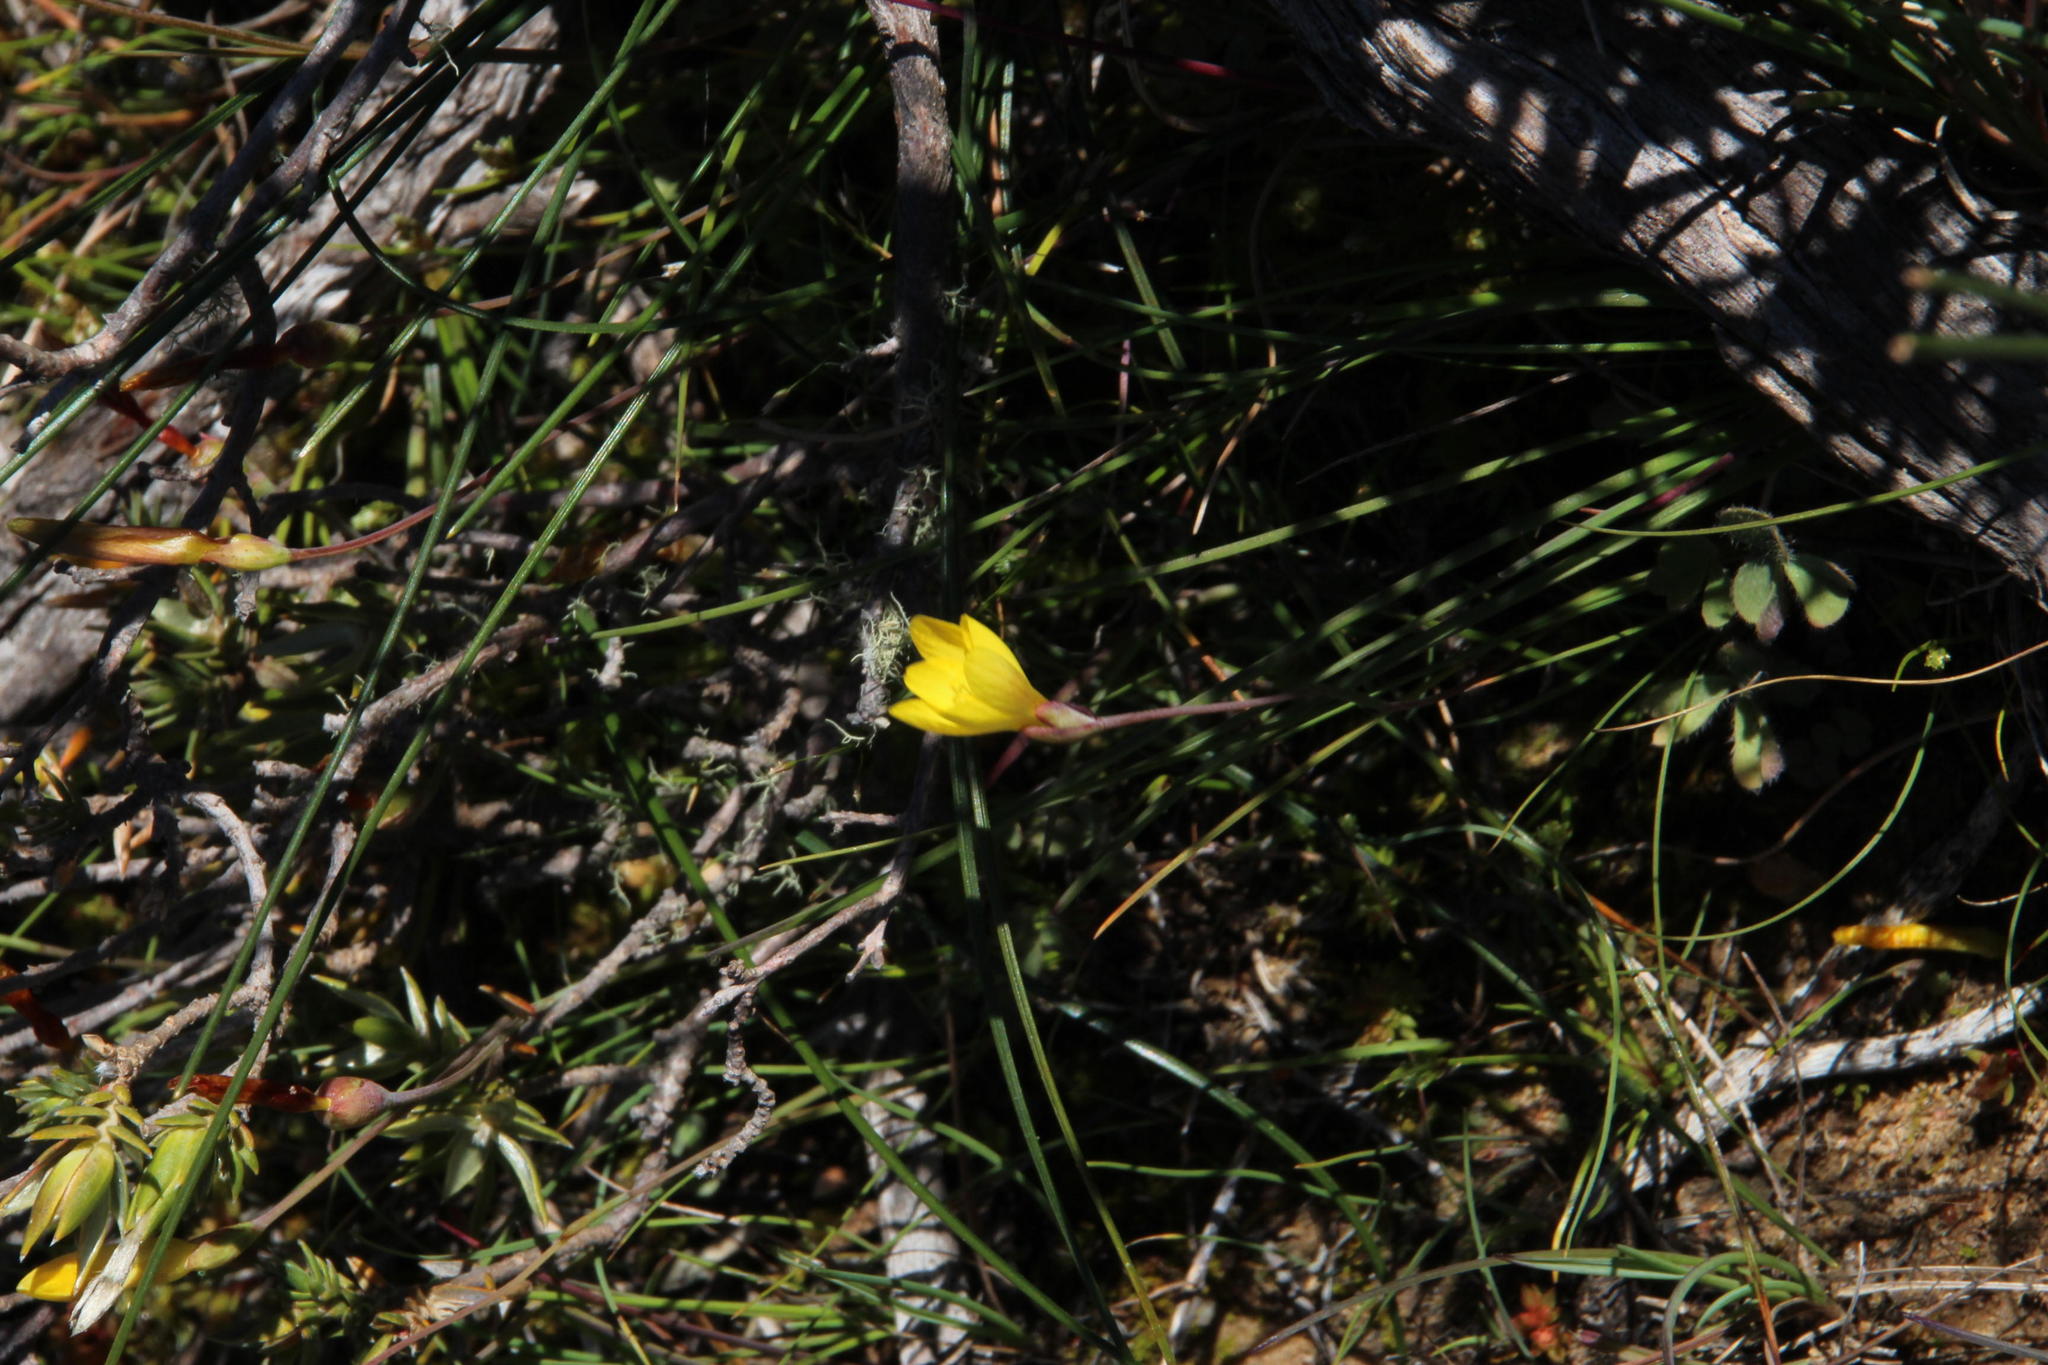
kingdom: Plantae
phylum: Tracheophyta
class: Liliopsida
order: Asparagales
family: Iridaceae
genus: Geissorhiza
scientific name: Geissorhiza ornithogaloides
